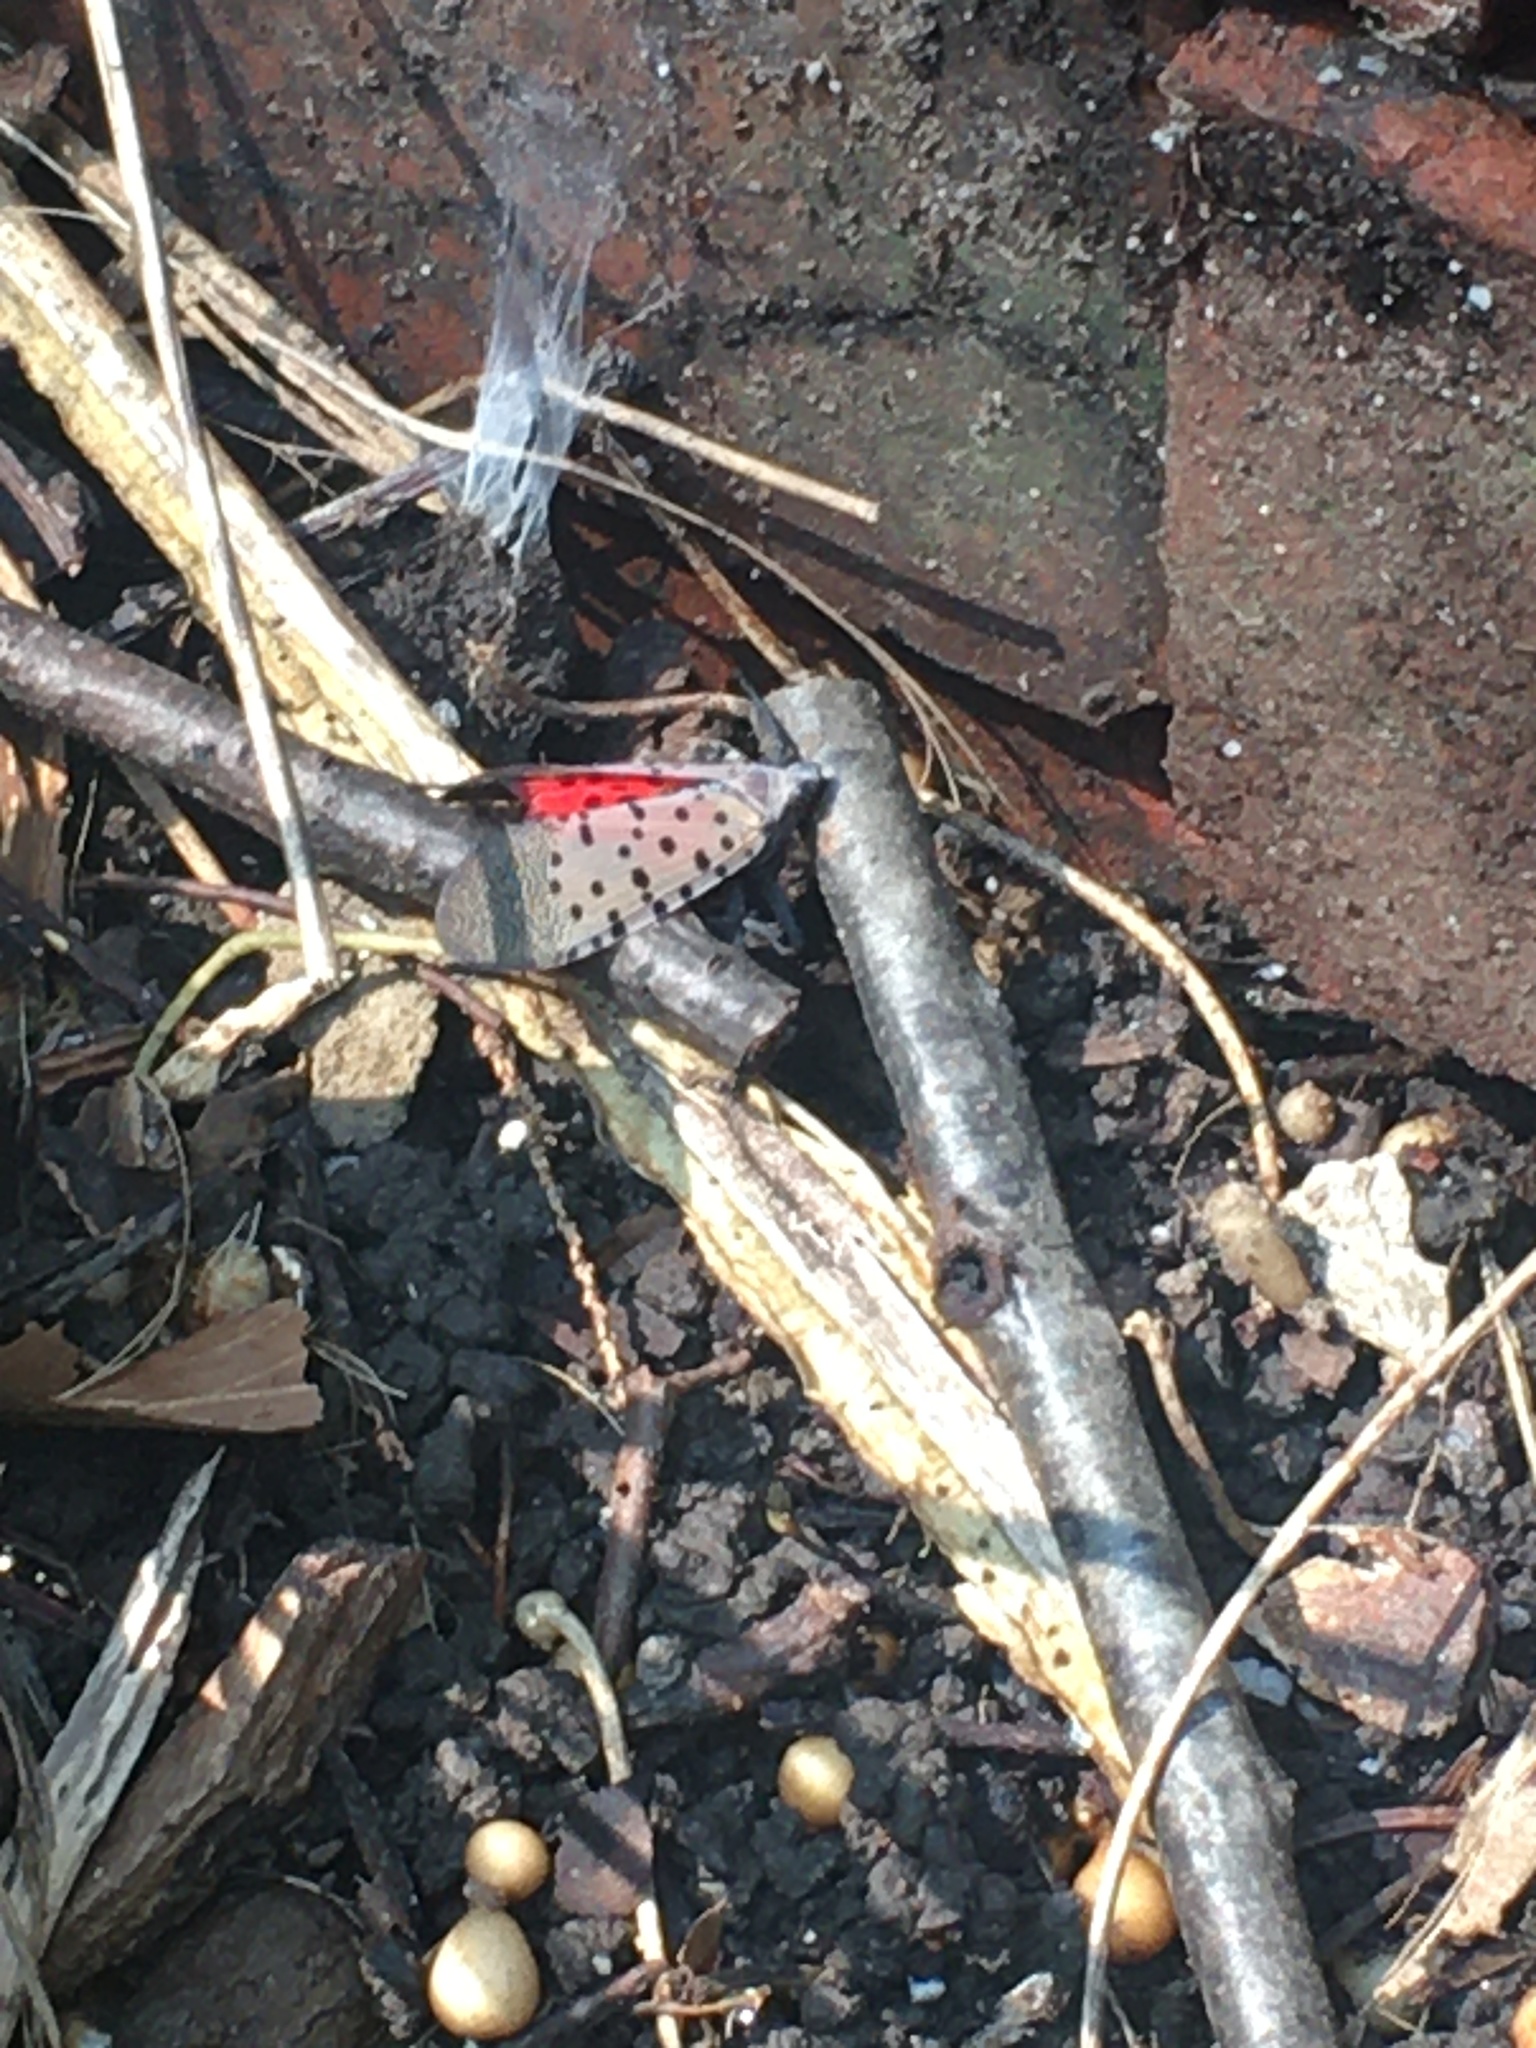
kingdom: Animalia
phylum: Arthropoda
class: Insecta
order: Hemiptera
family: Fulgoridae
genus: Lycorma
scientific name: Lycorma delicatula
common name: Spotted lanternfly
